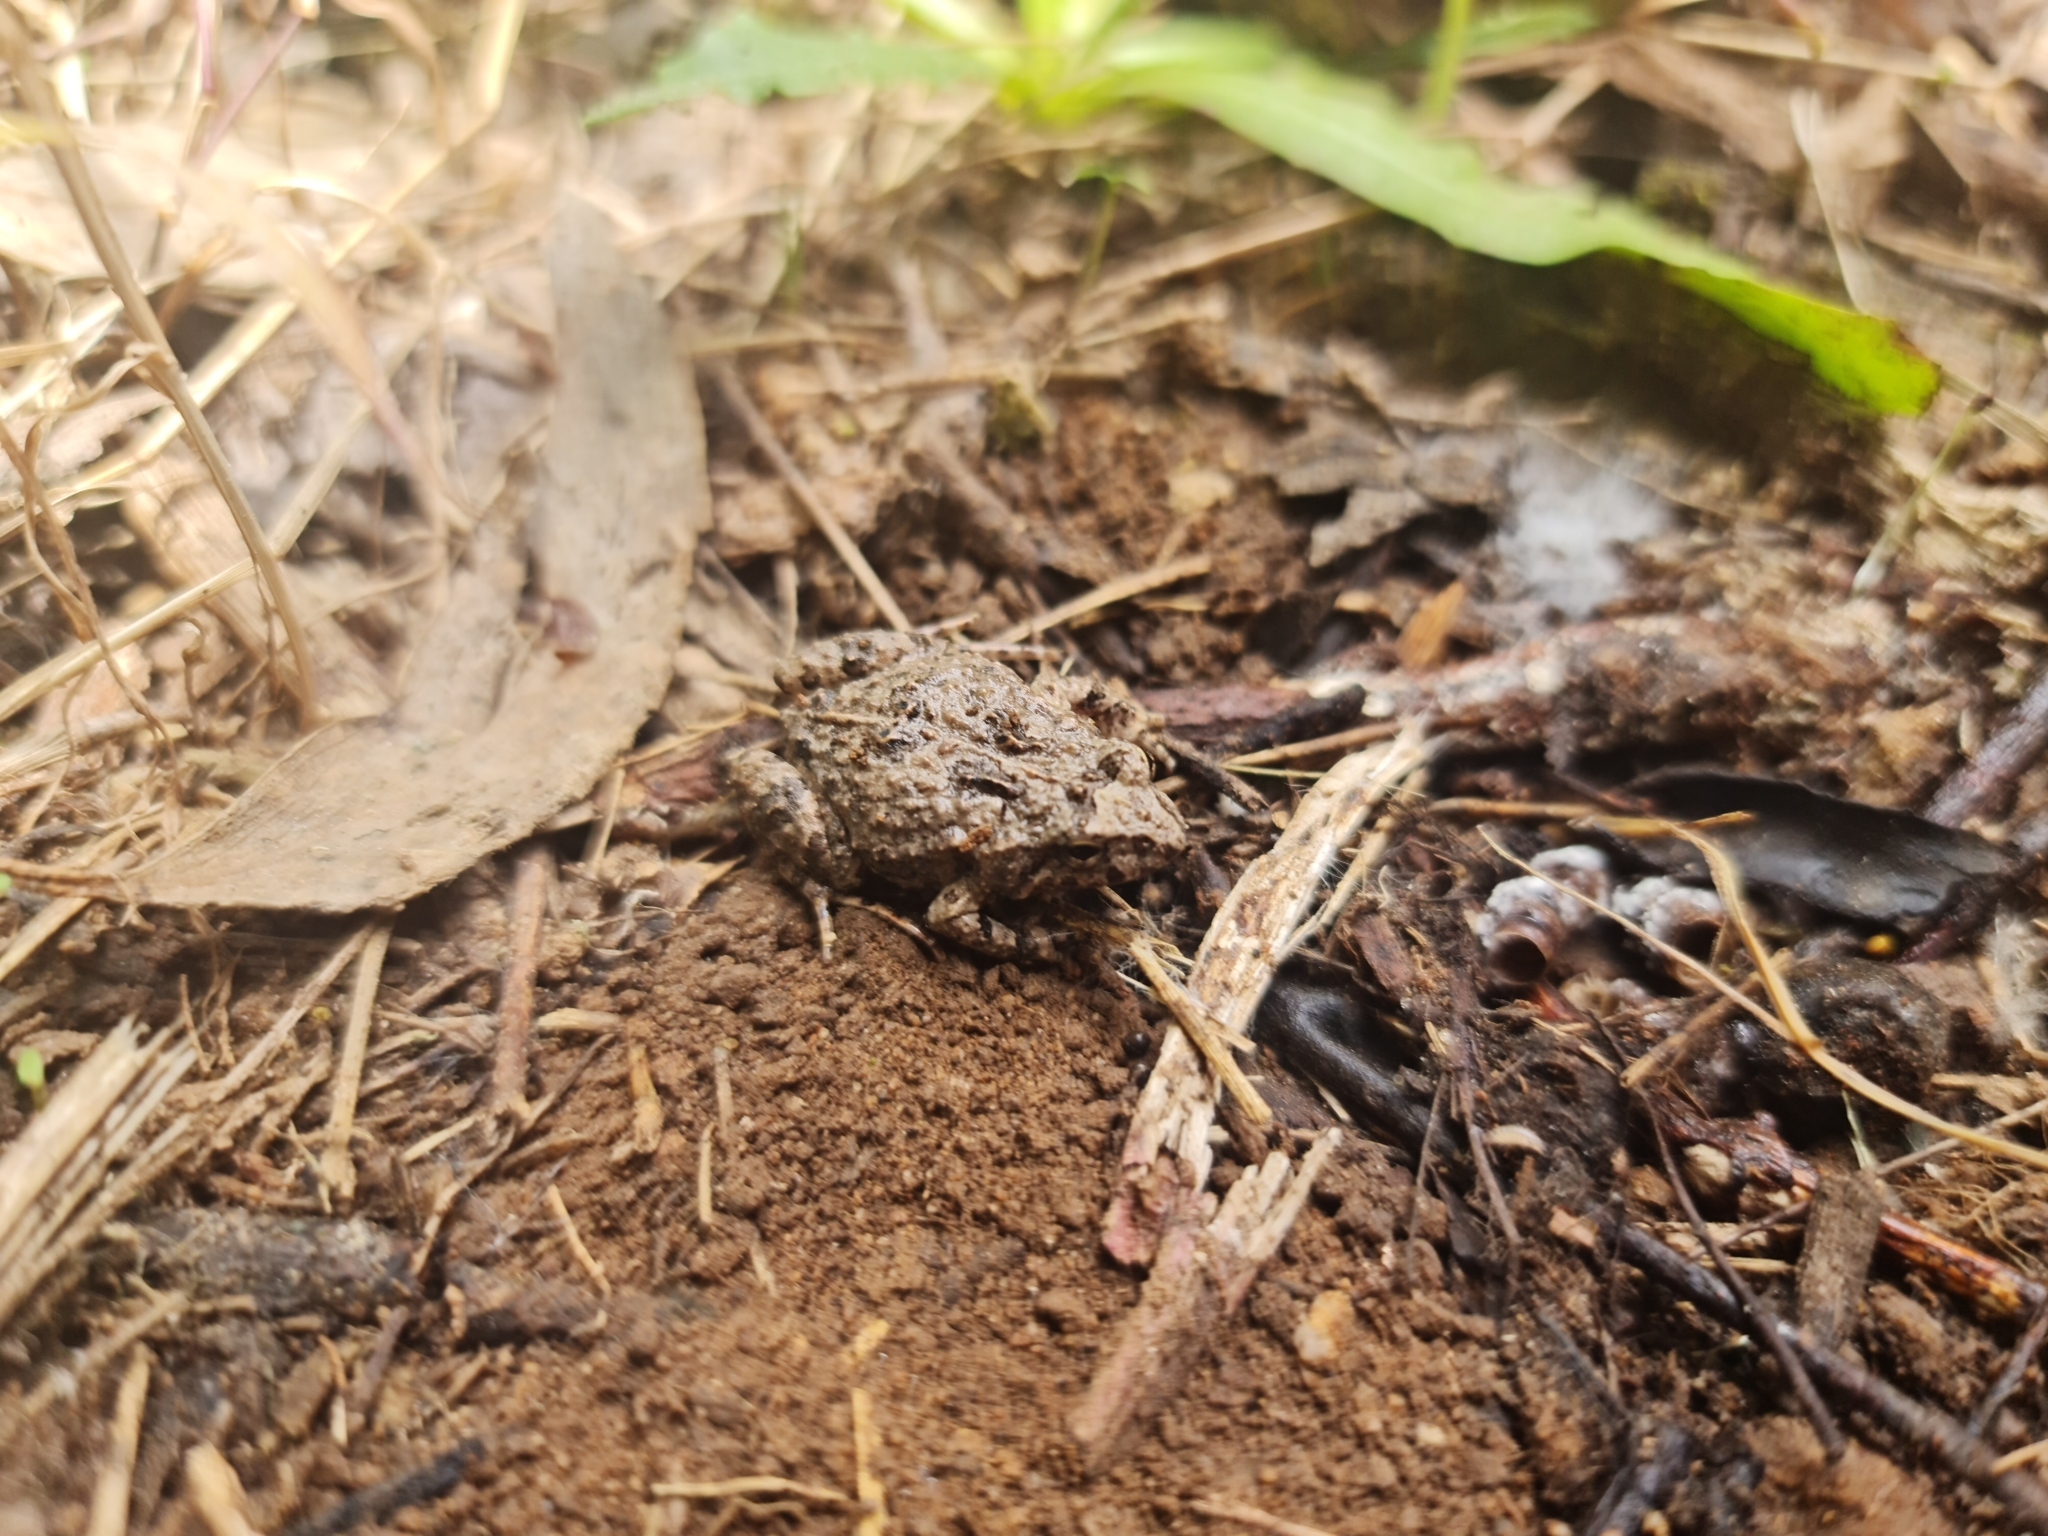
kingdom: Animalia
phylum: Chordata
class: Amphibia
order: Anura
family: Myobatrachidae
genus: Crinia
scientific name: Crinia signifera
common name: Brown froglet
